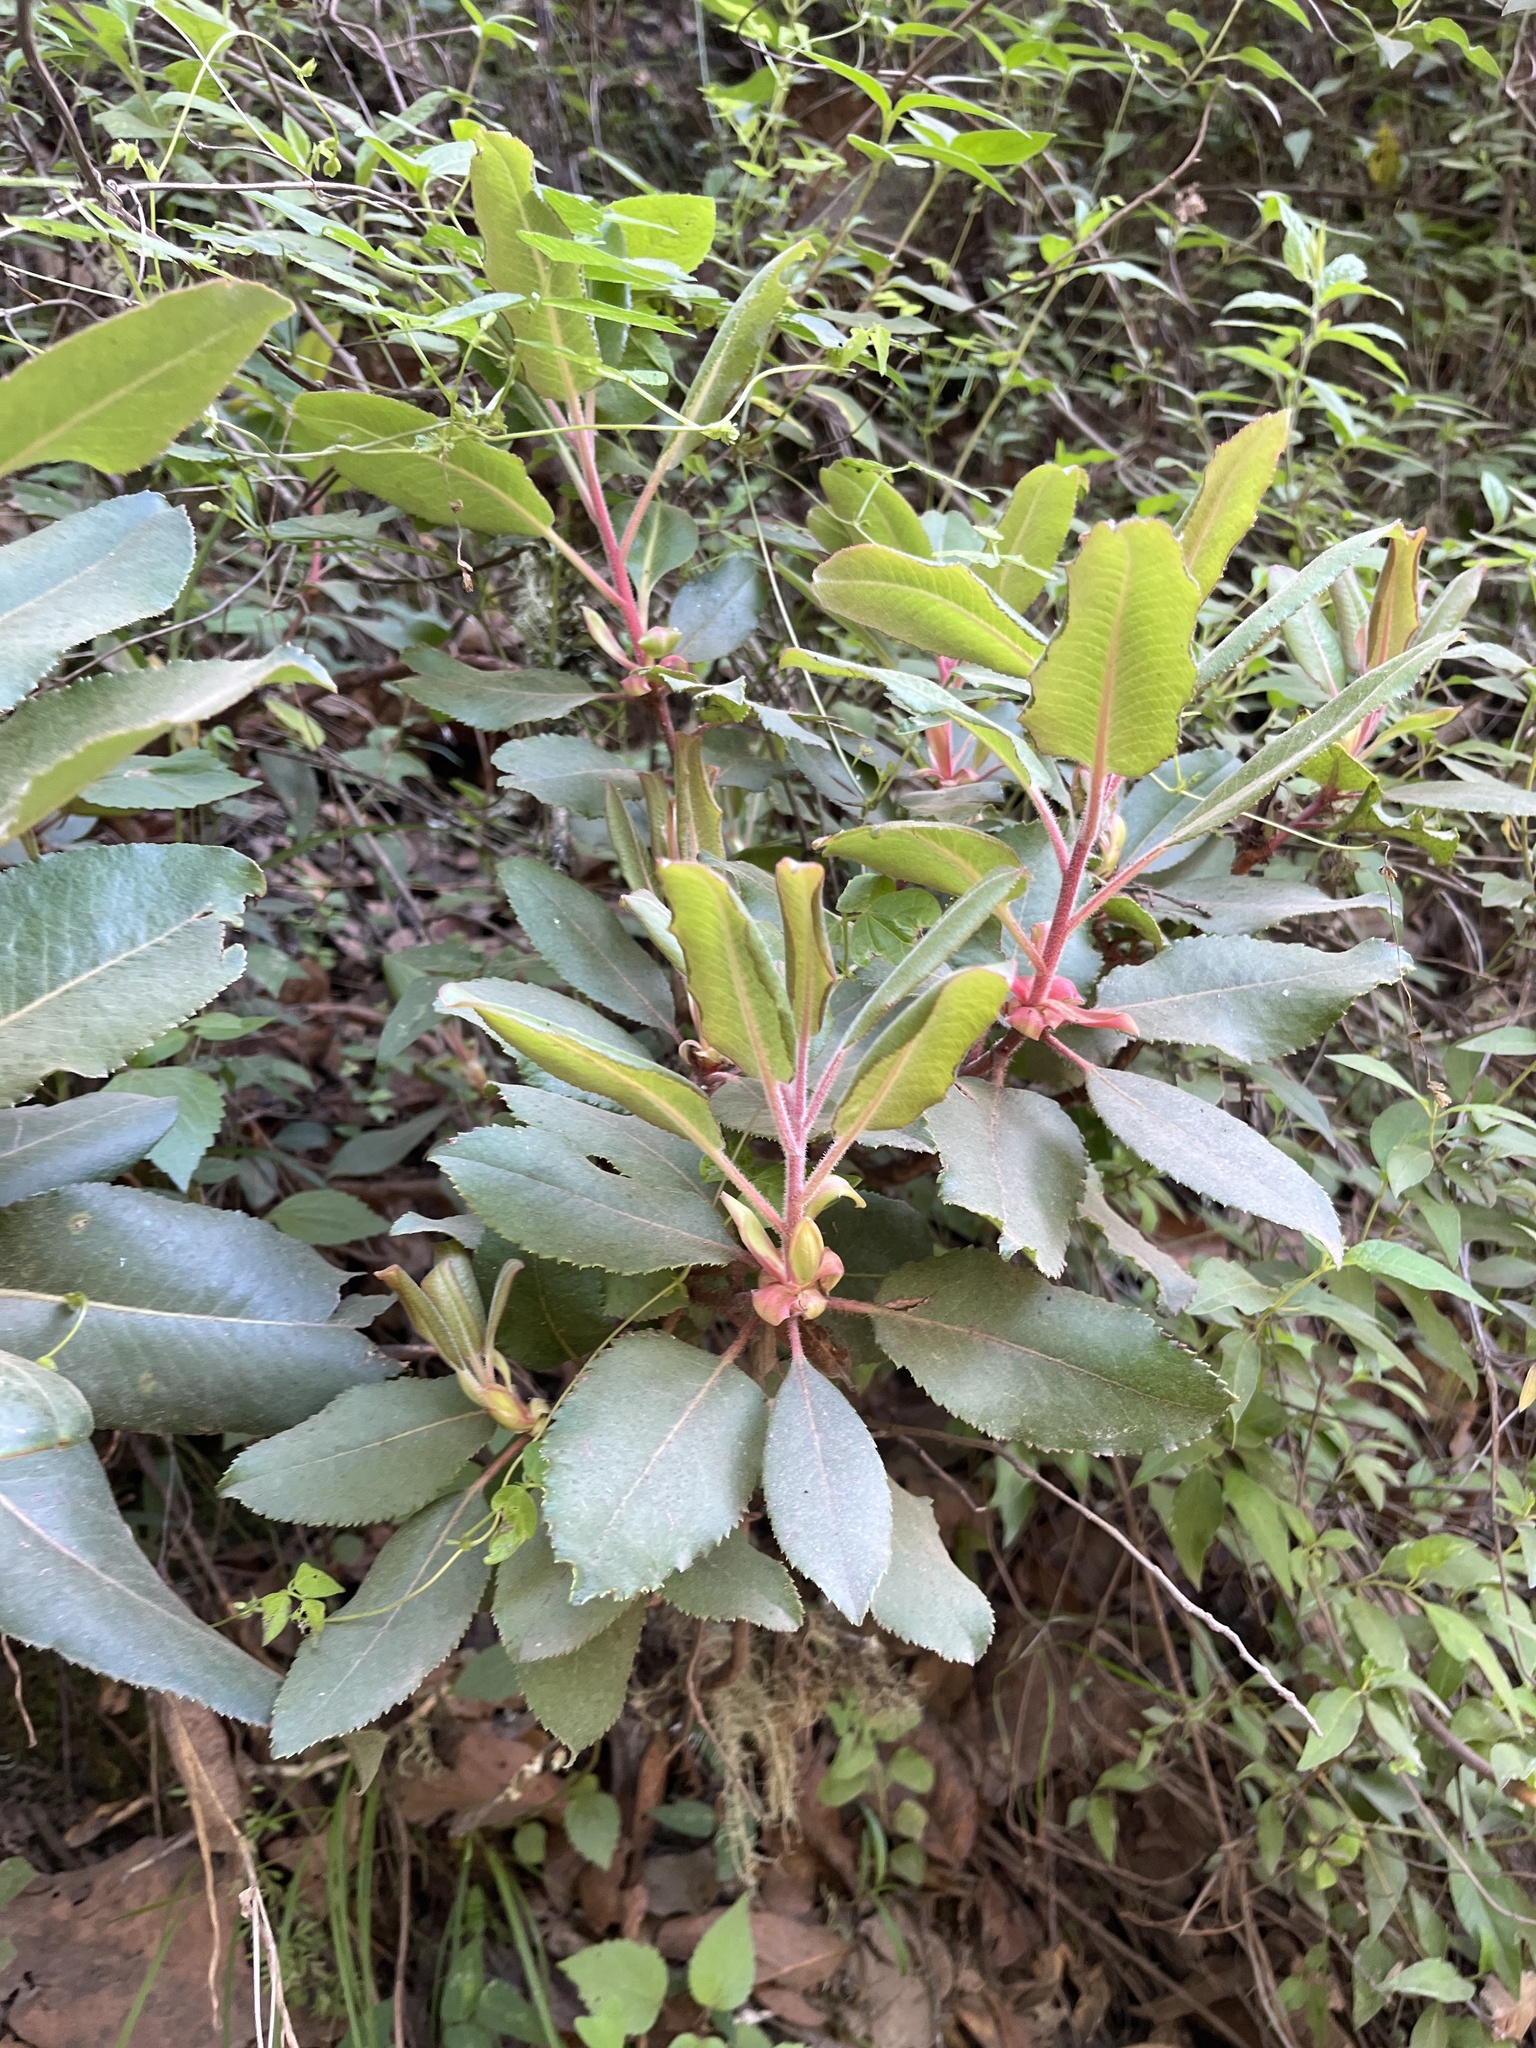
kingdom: Plantae
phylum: Tracheophyta
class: Magnoliopsida
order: Ericales
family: Ericaceae
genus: Arbutus
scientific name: Arbutus xalapensis
